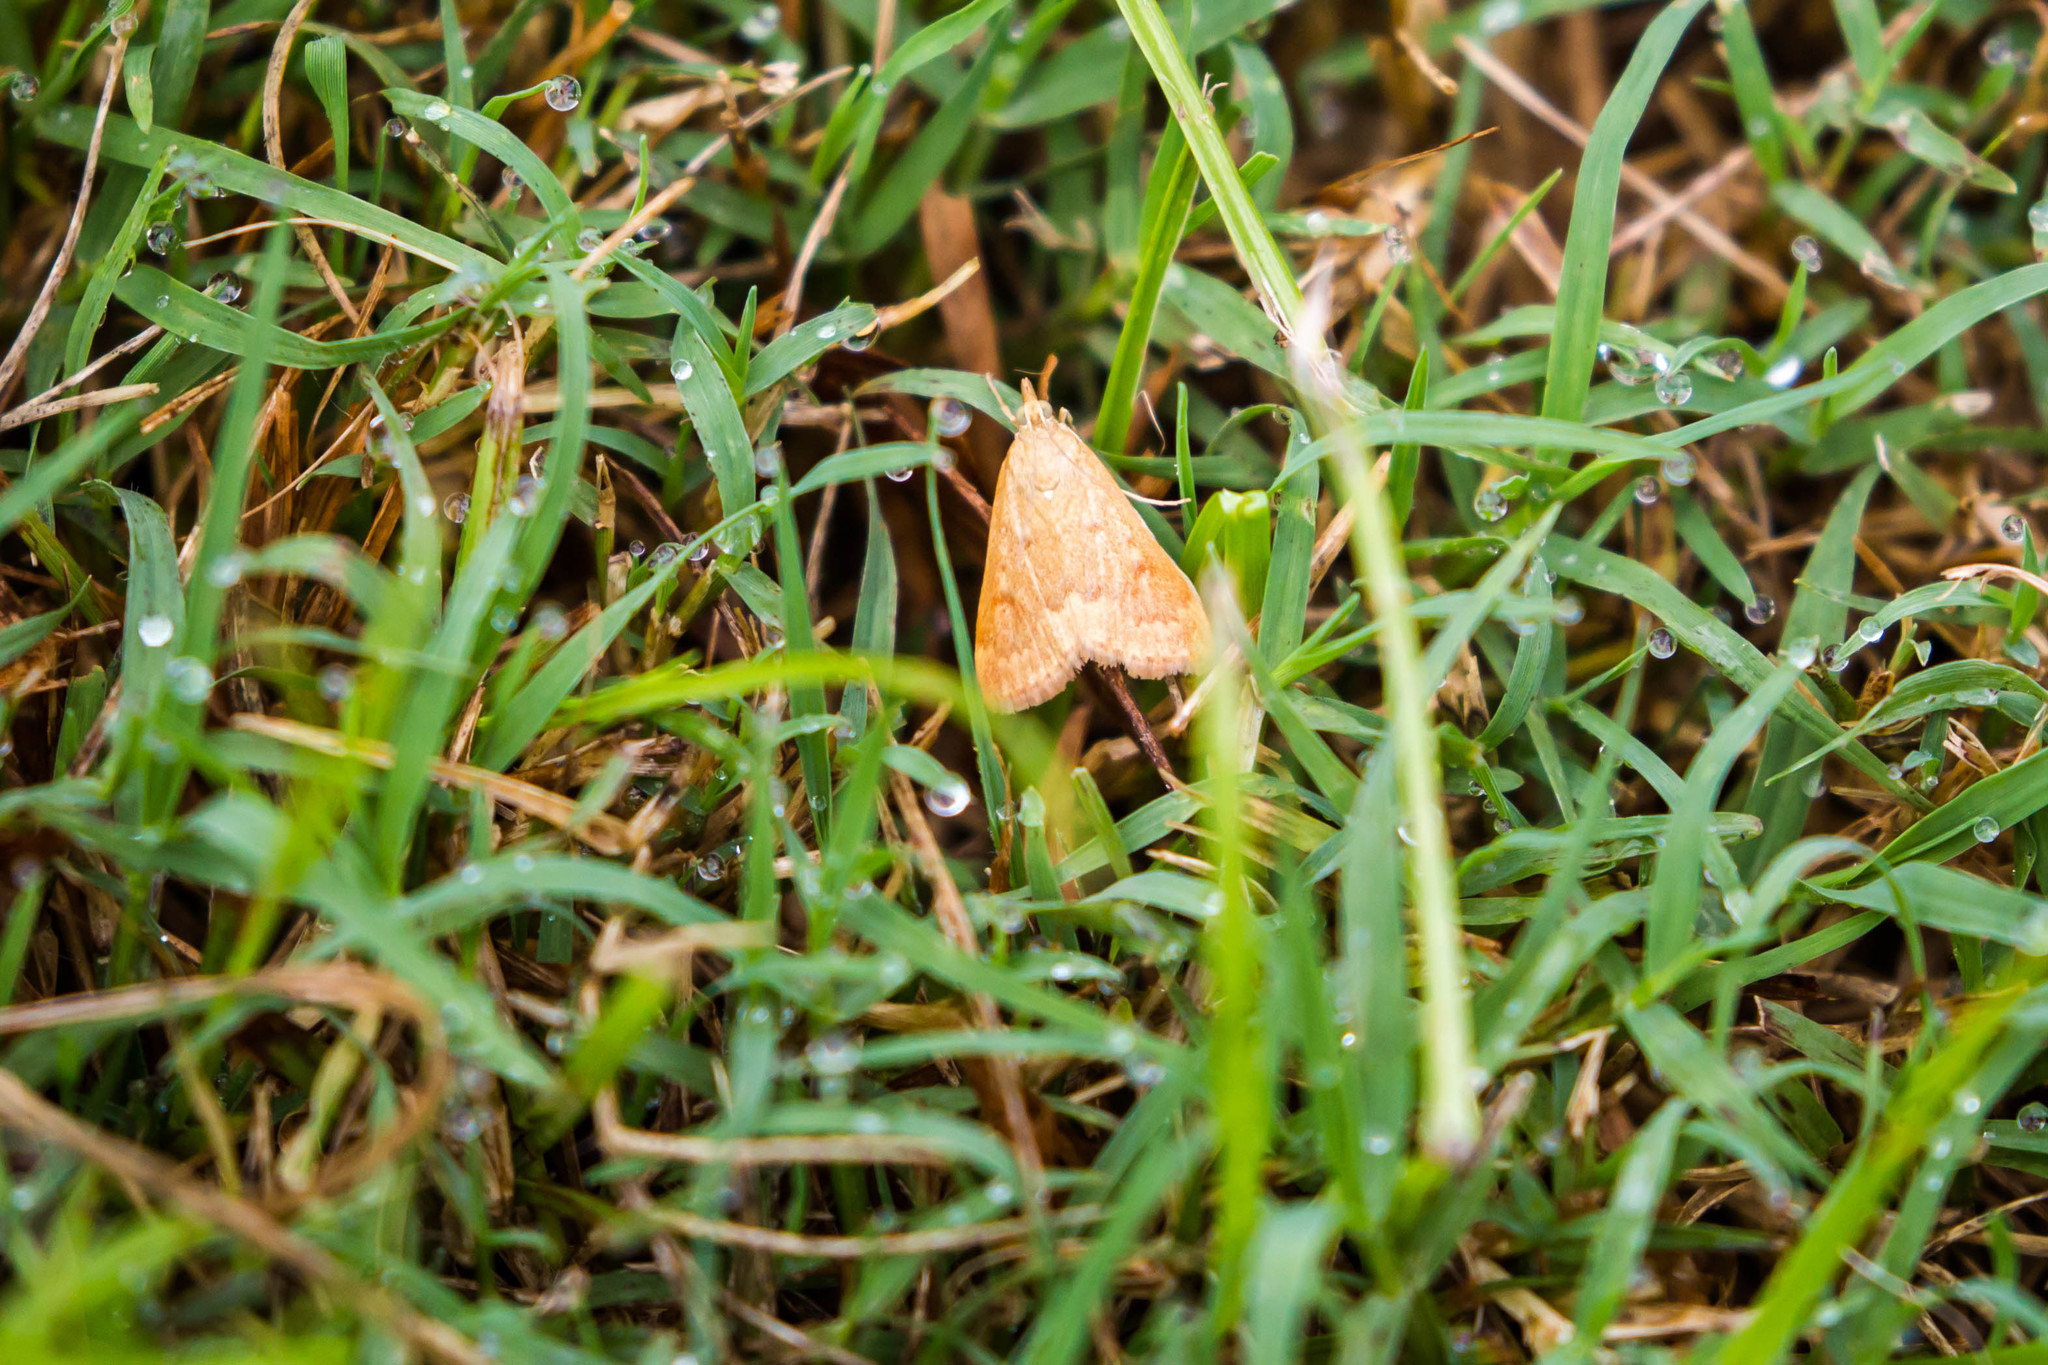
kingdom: Animalia
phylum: Arthropoda
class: Insecta
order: Lepidoptera
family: Crambidae
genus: Achyra
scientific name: Achyra rantalis
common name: Garden webworm
